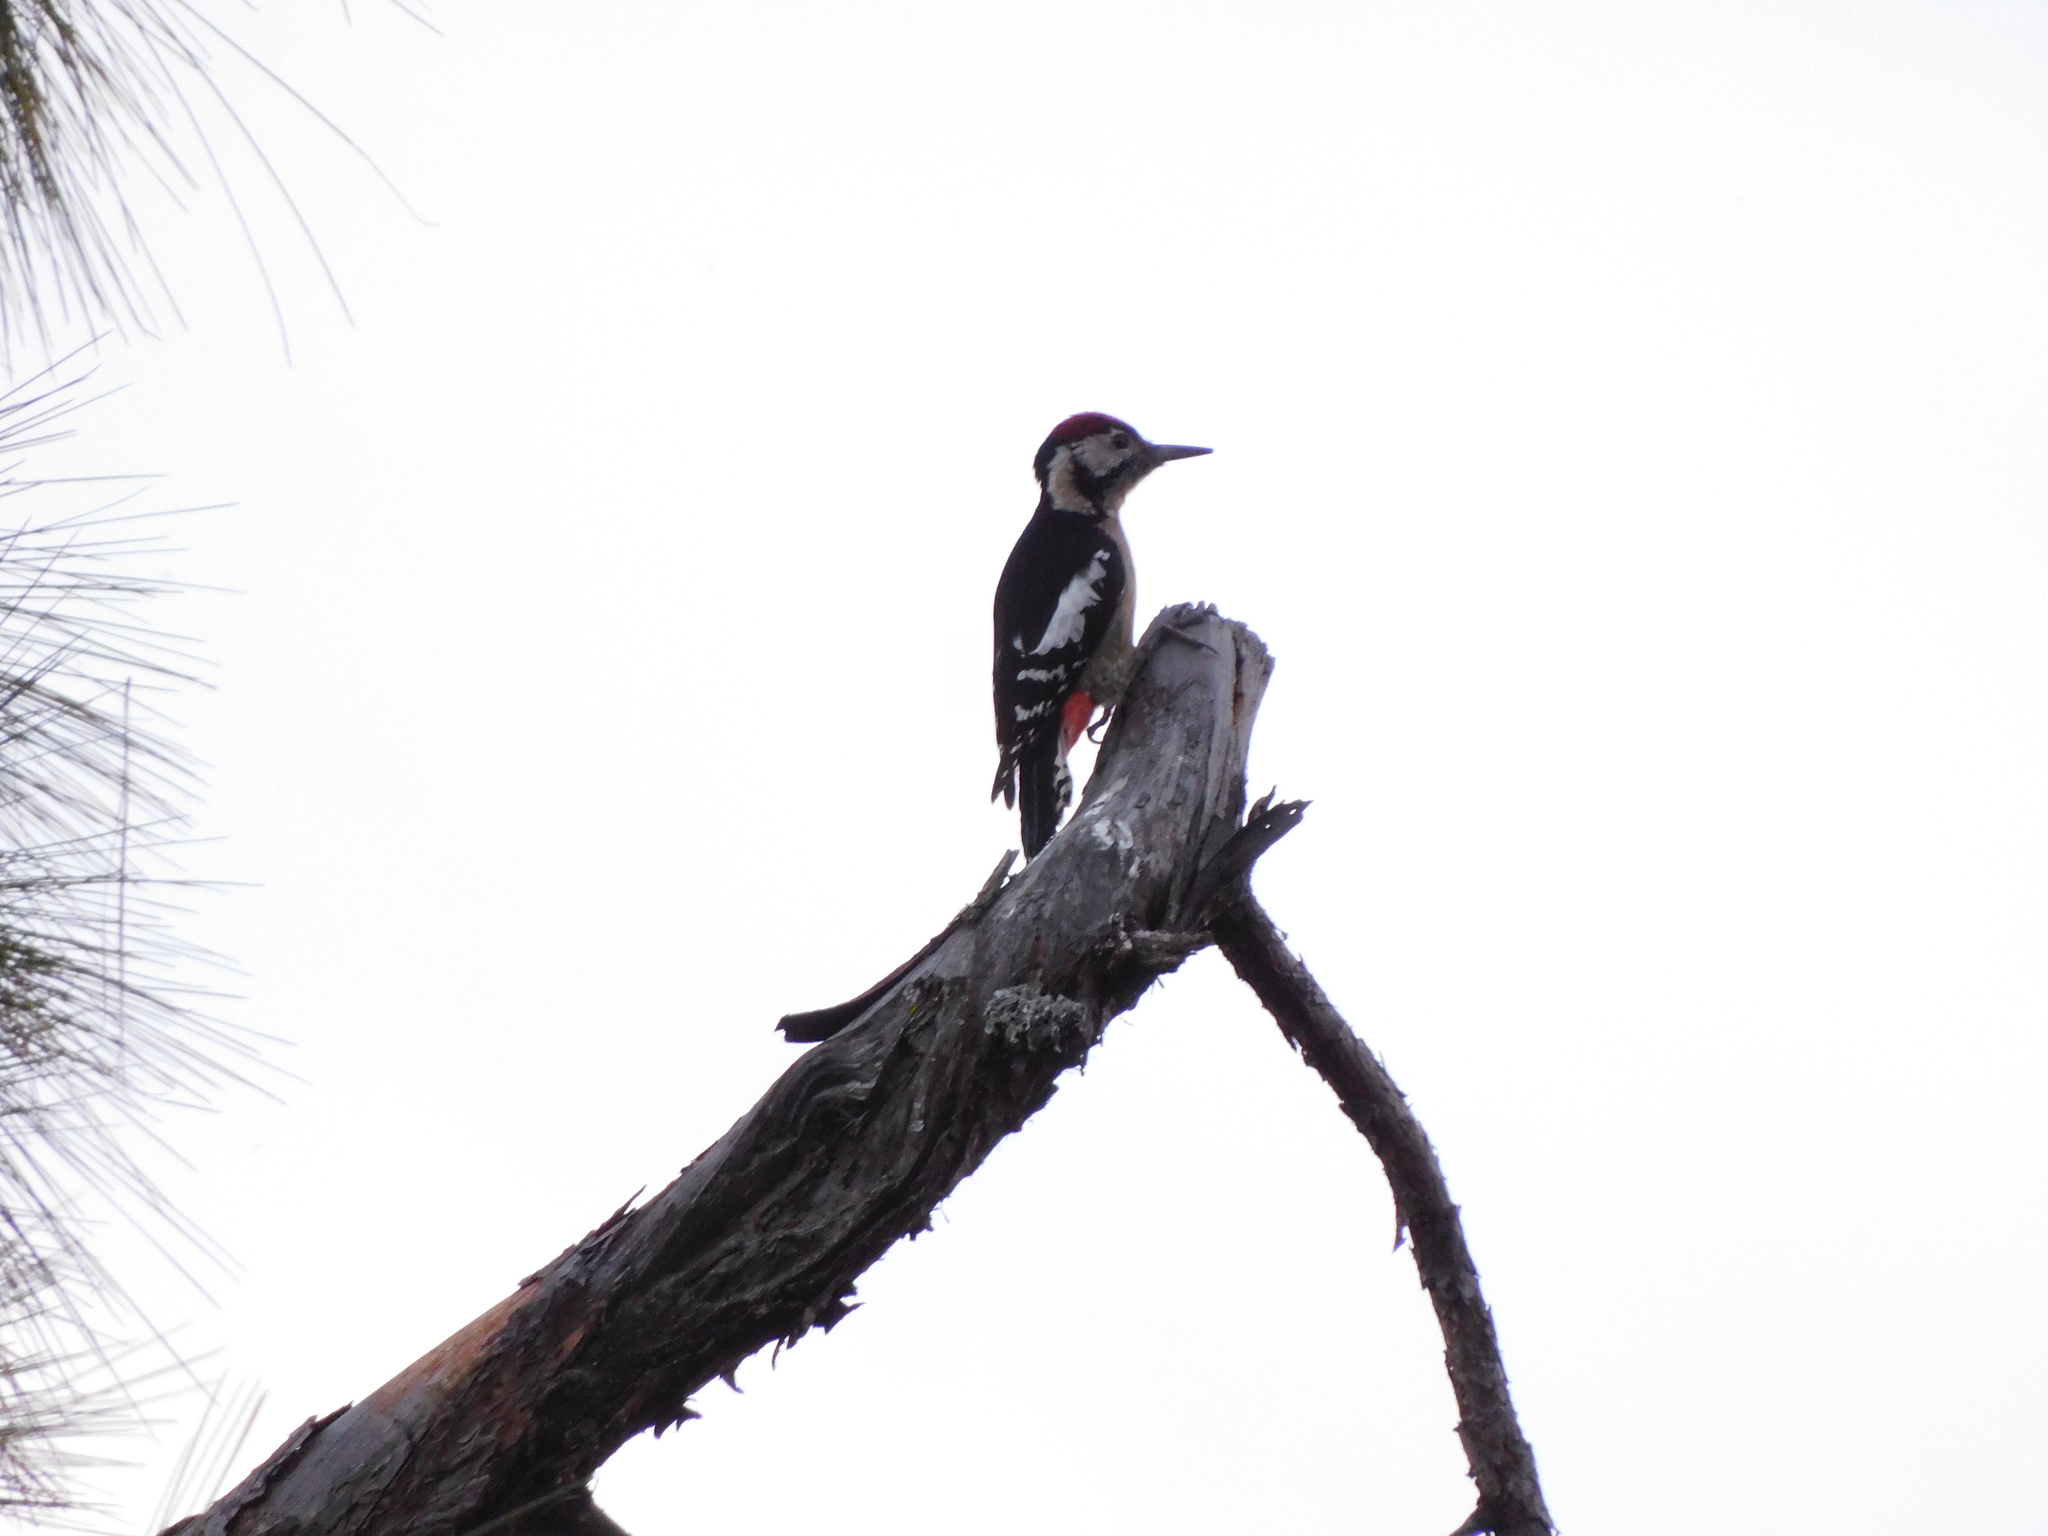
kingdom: Animalia
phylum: Chordata
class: Aves
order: Piciformes
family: Picidae
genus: Dendrocopos
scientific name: Dendrocopos himalayensis
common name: Himalayan woodpecker
